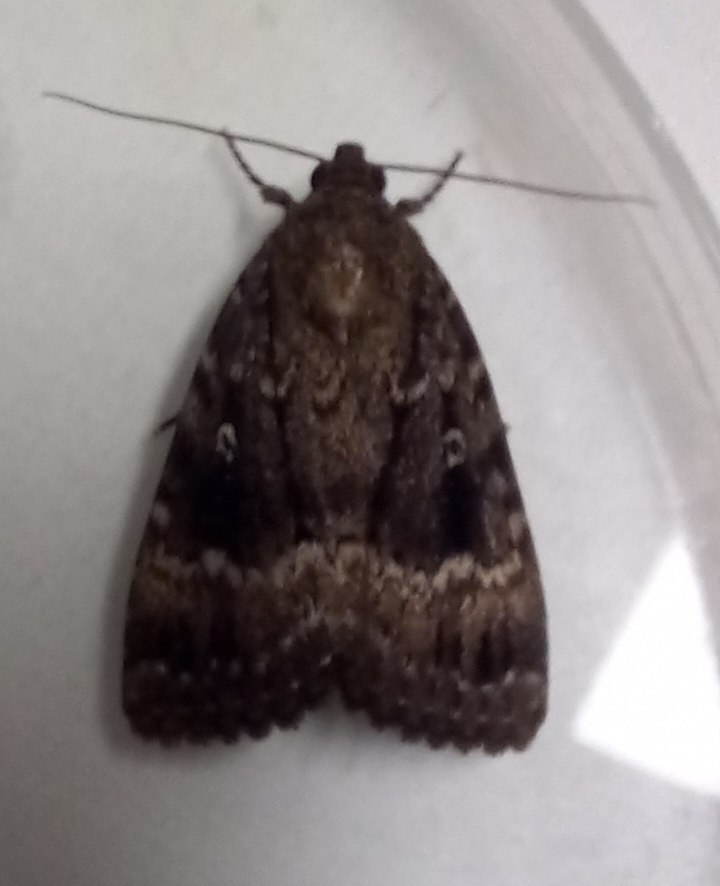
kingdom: Animalia
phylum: Arthropoda
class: Insecta
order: Lepidoptera
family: Noctuidae
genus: Amphipyra
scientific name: Amphipyra pyramidea
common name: Copper underwing
